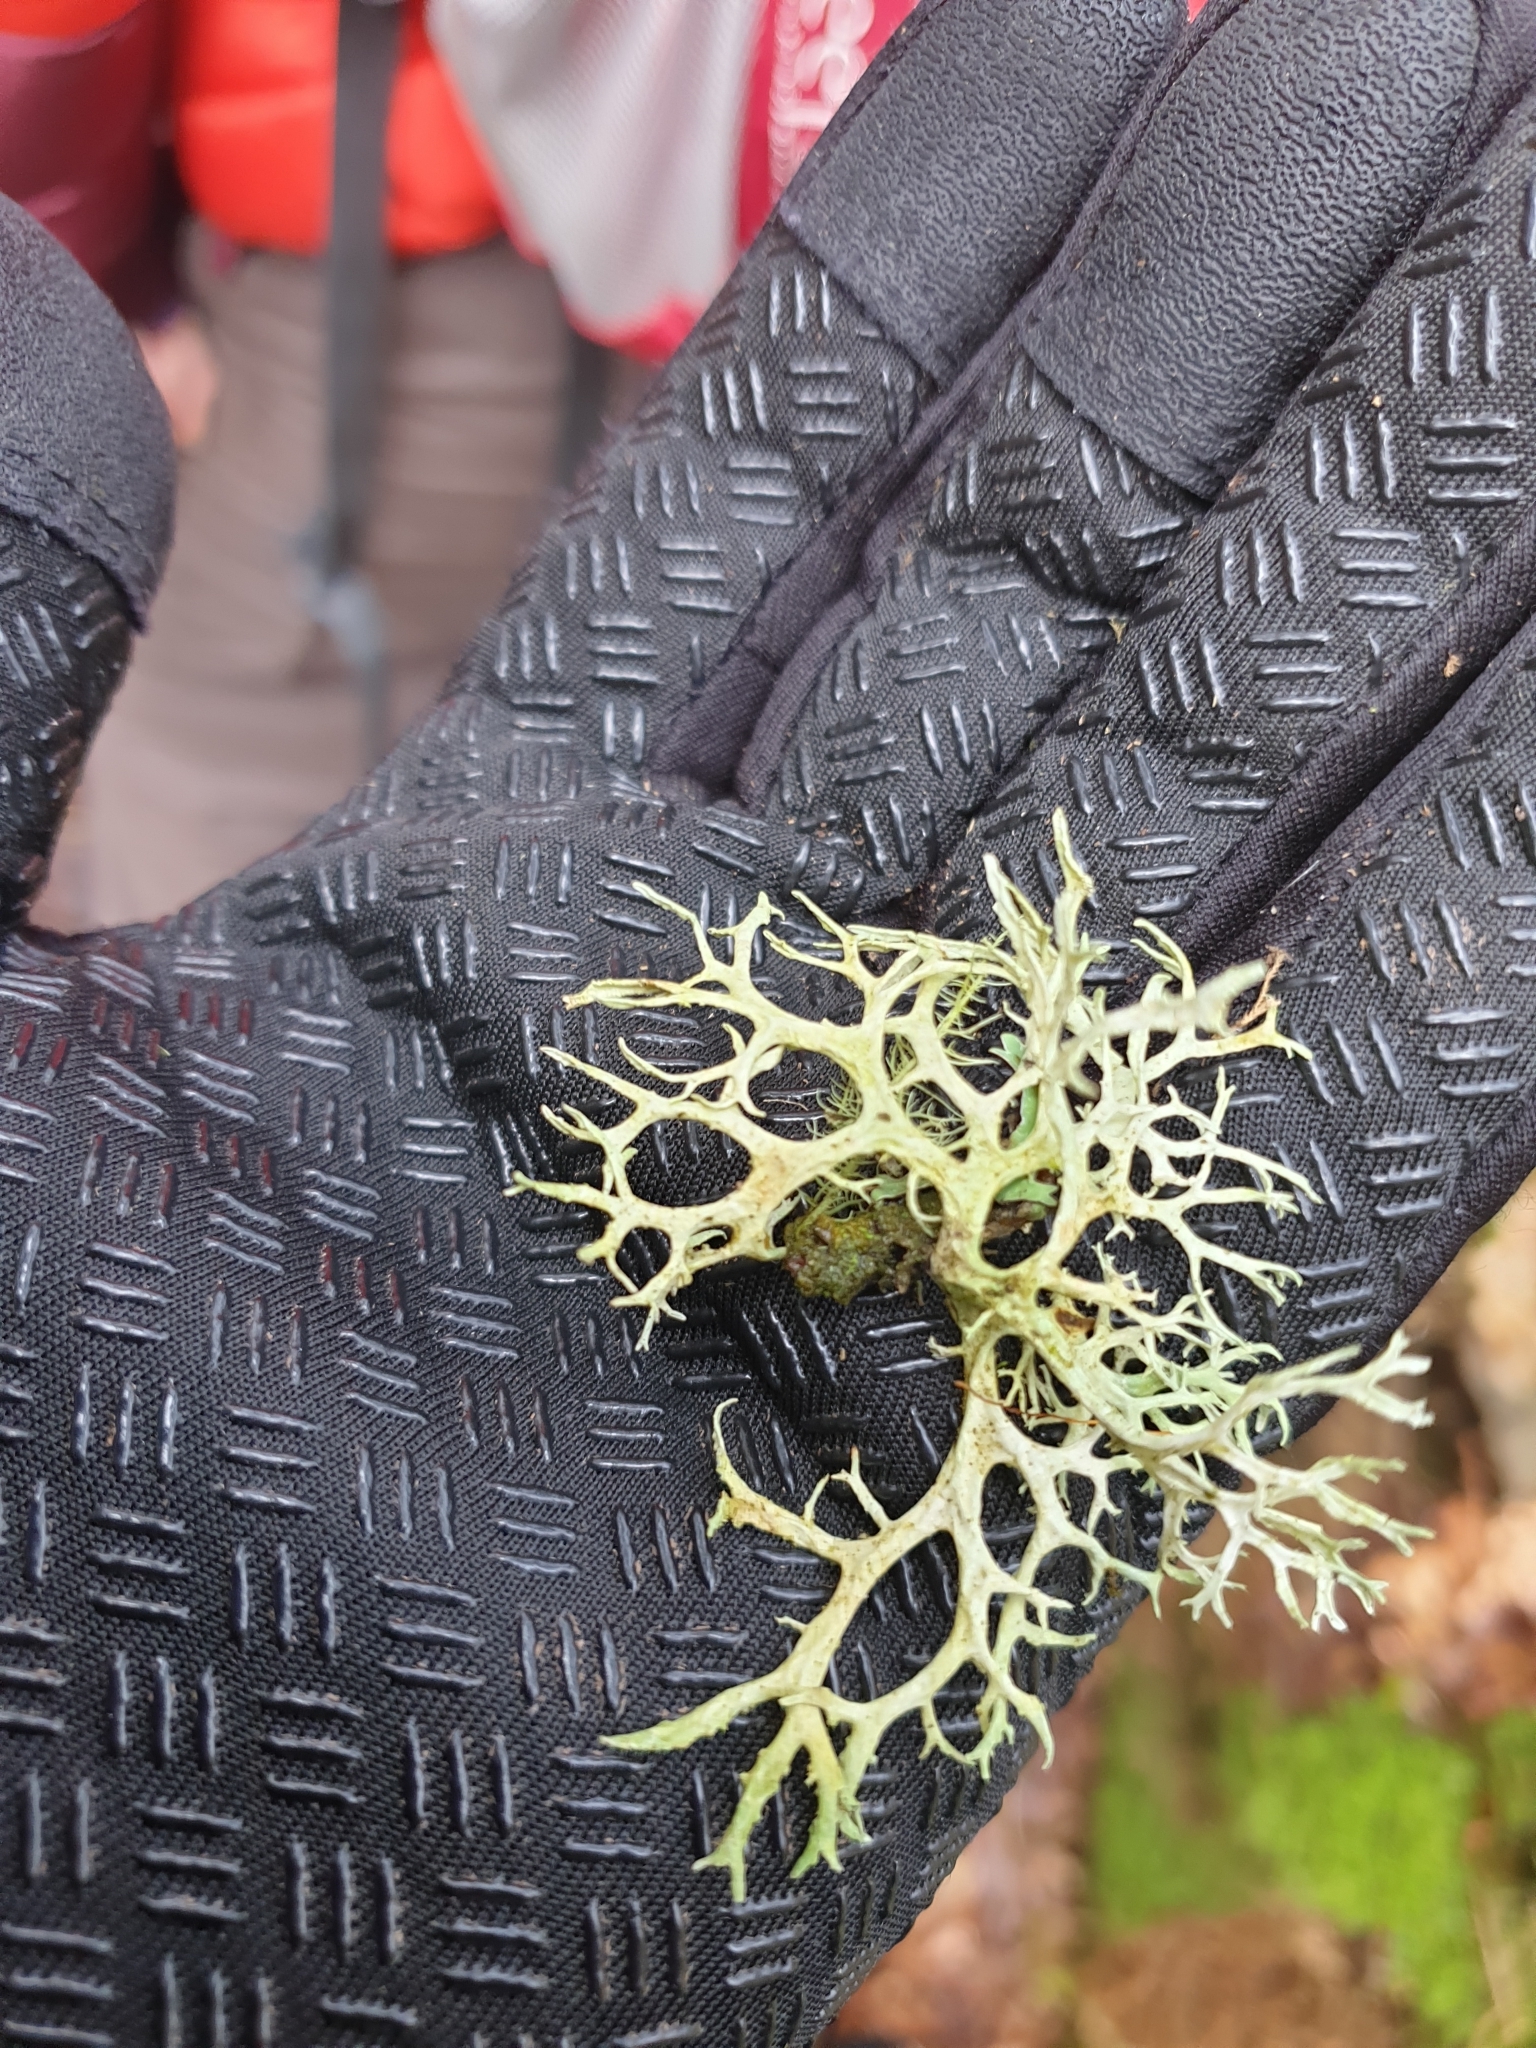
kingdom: Fungi
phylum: Ascomycota
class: Lecanoromycetes
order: Lecanorales
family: Parmeliaceae
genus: Evernia
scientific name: Evernia prunastri
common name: Oak moss
